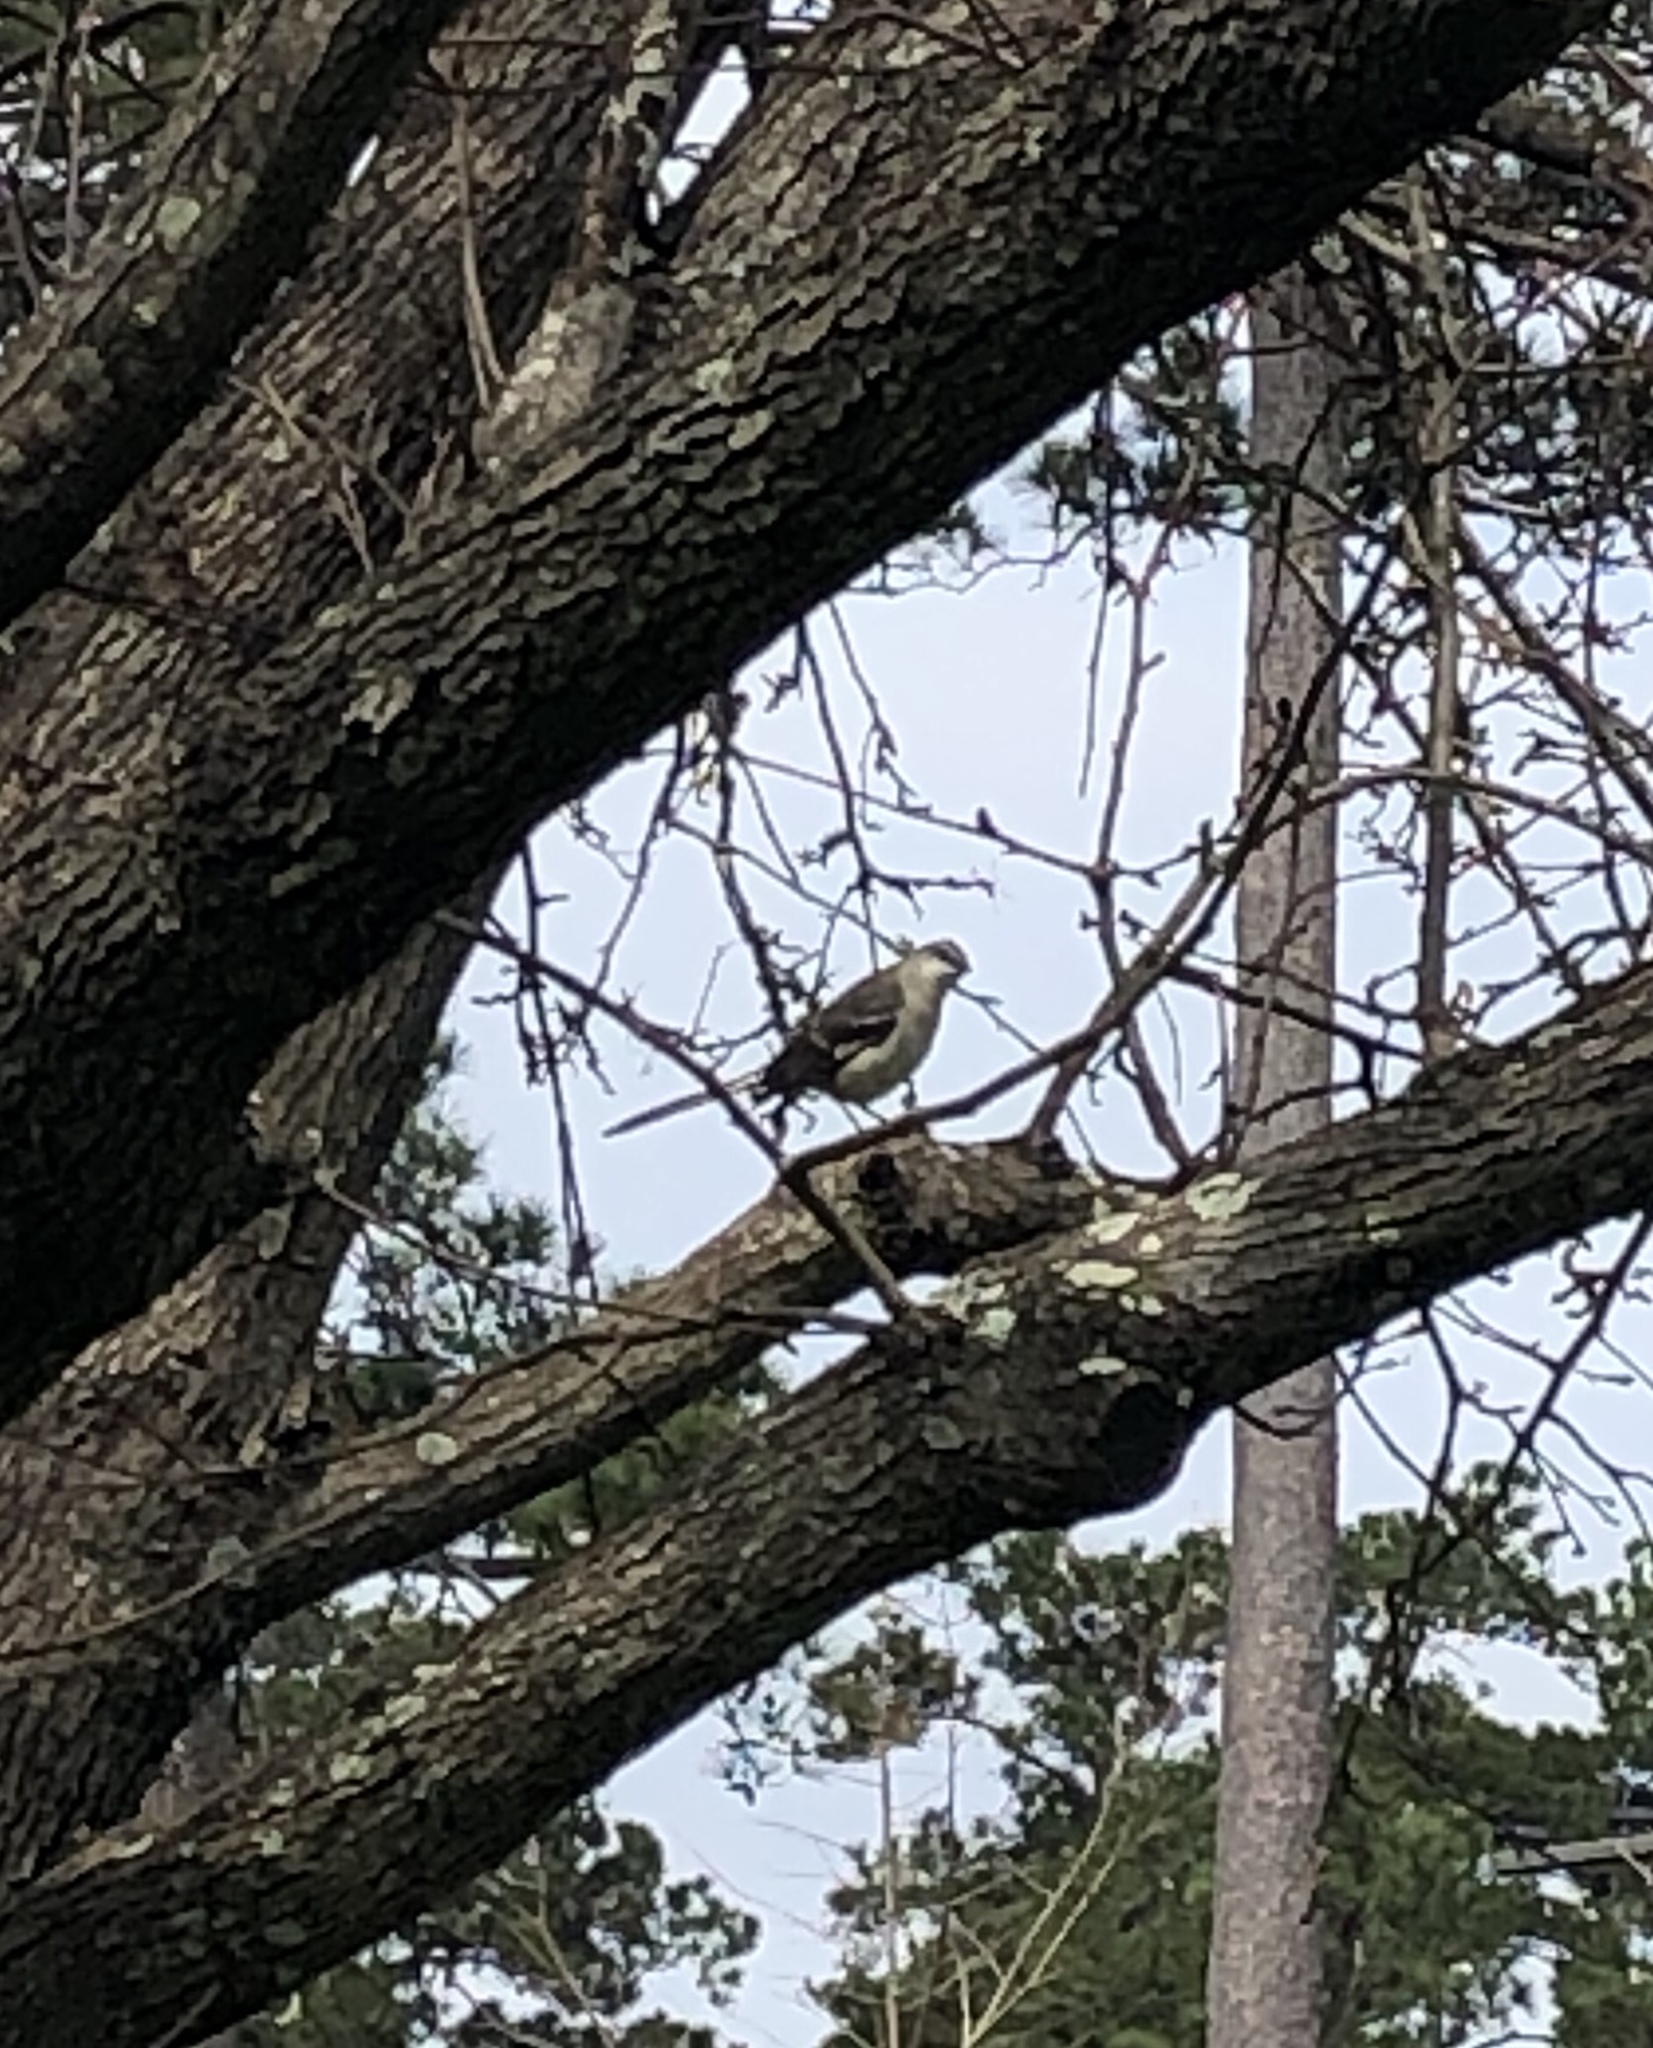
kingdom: Animalia
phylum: Chordata
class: Aves
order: Passeriformes
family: Mimidae
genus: Mimus
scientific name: Mimus polyglottos
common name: Northern mockingbird
